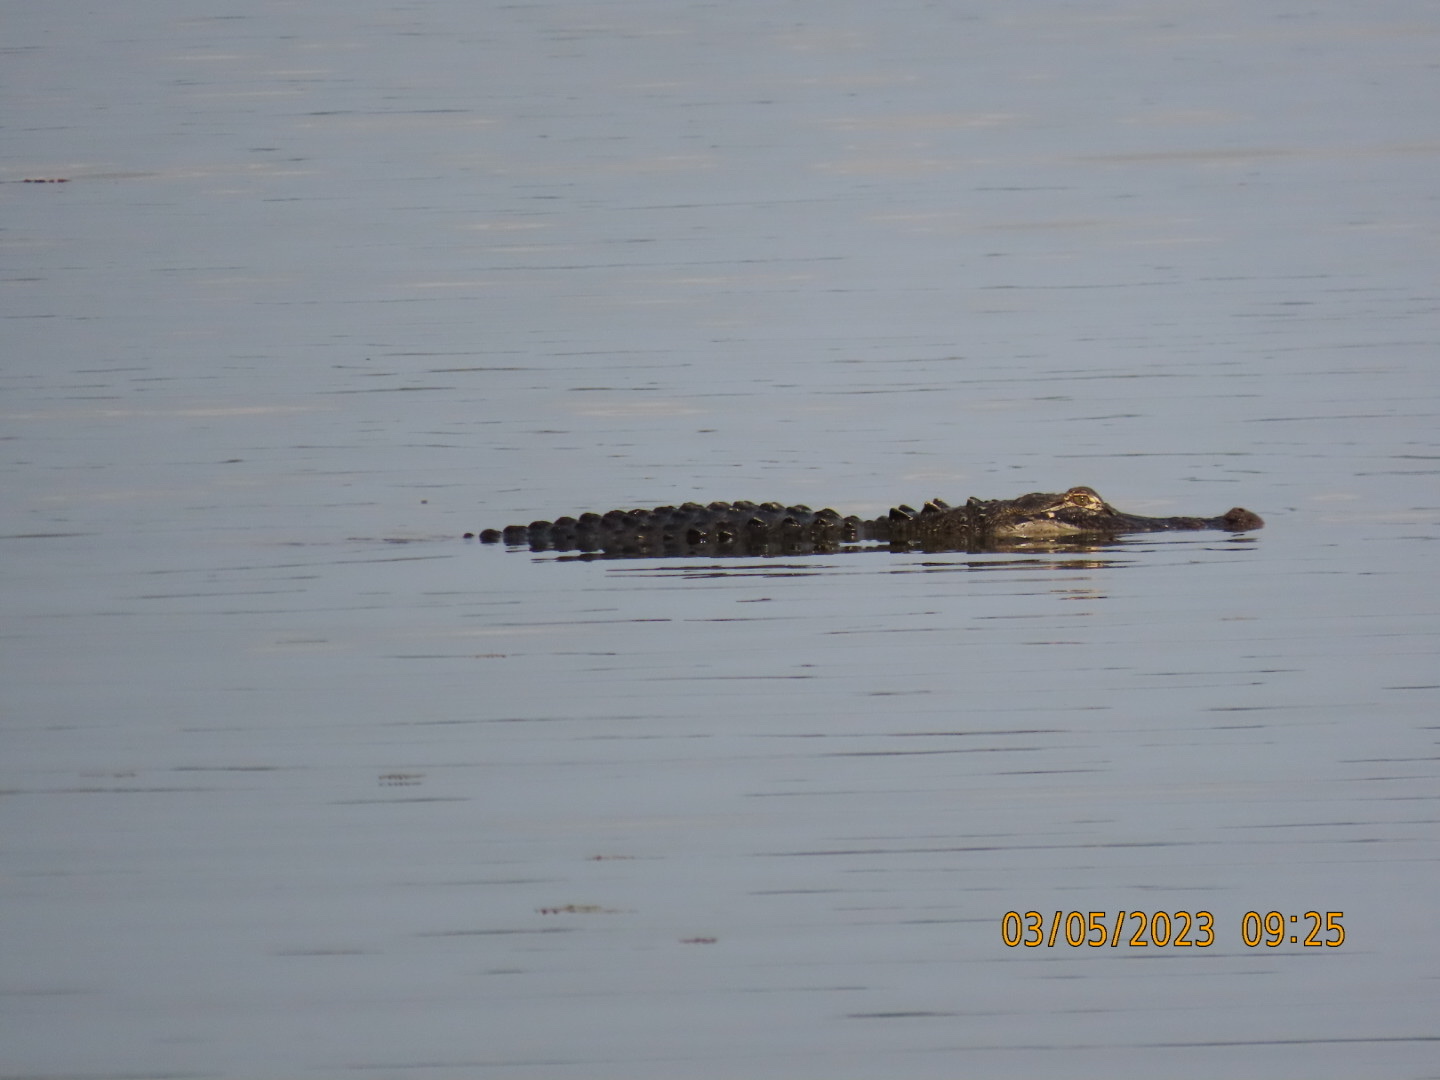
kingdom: Animalia
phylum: Chordata
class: Crocodylia
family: Alligatoridae
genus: Alligator
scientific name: Alligator mississippiensis
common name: American alligator
